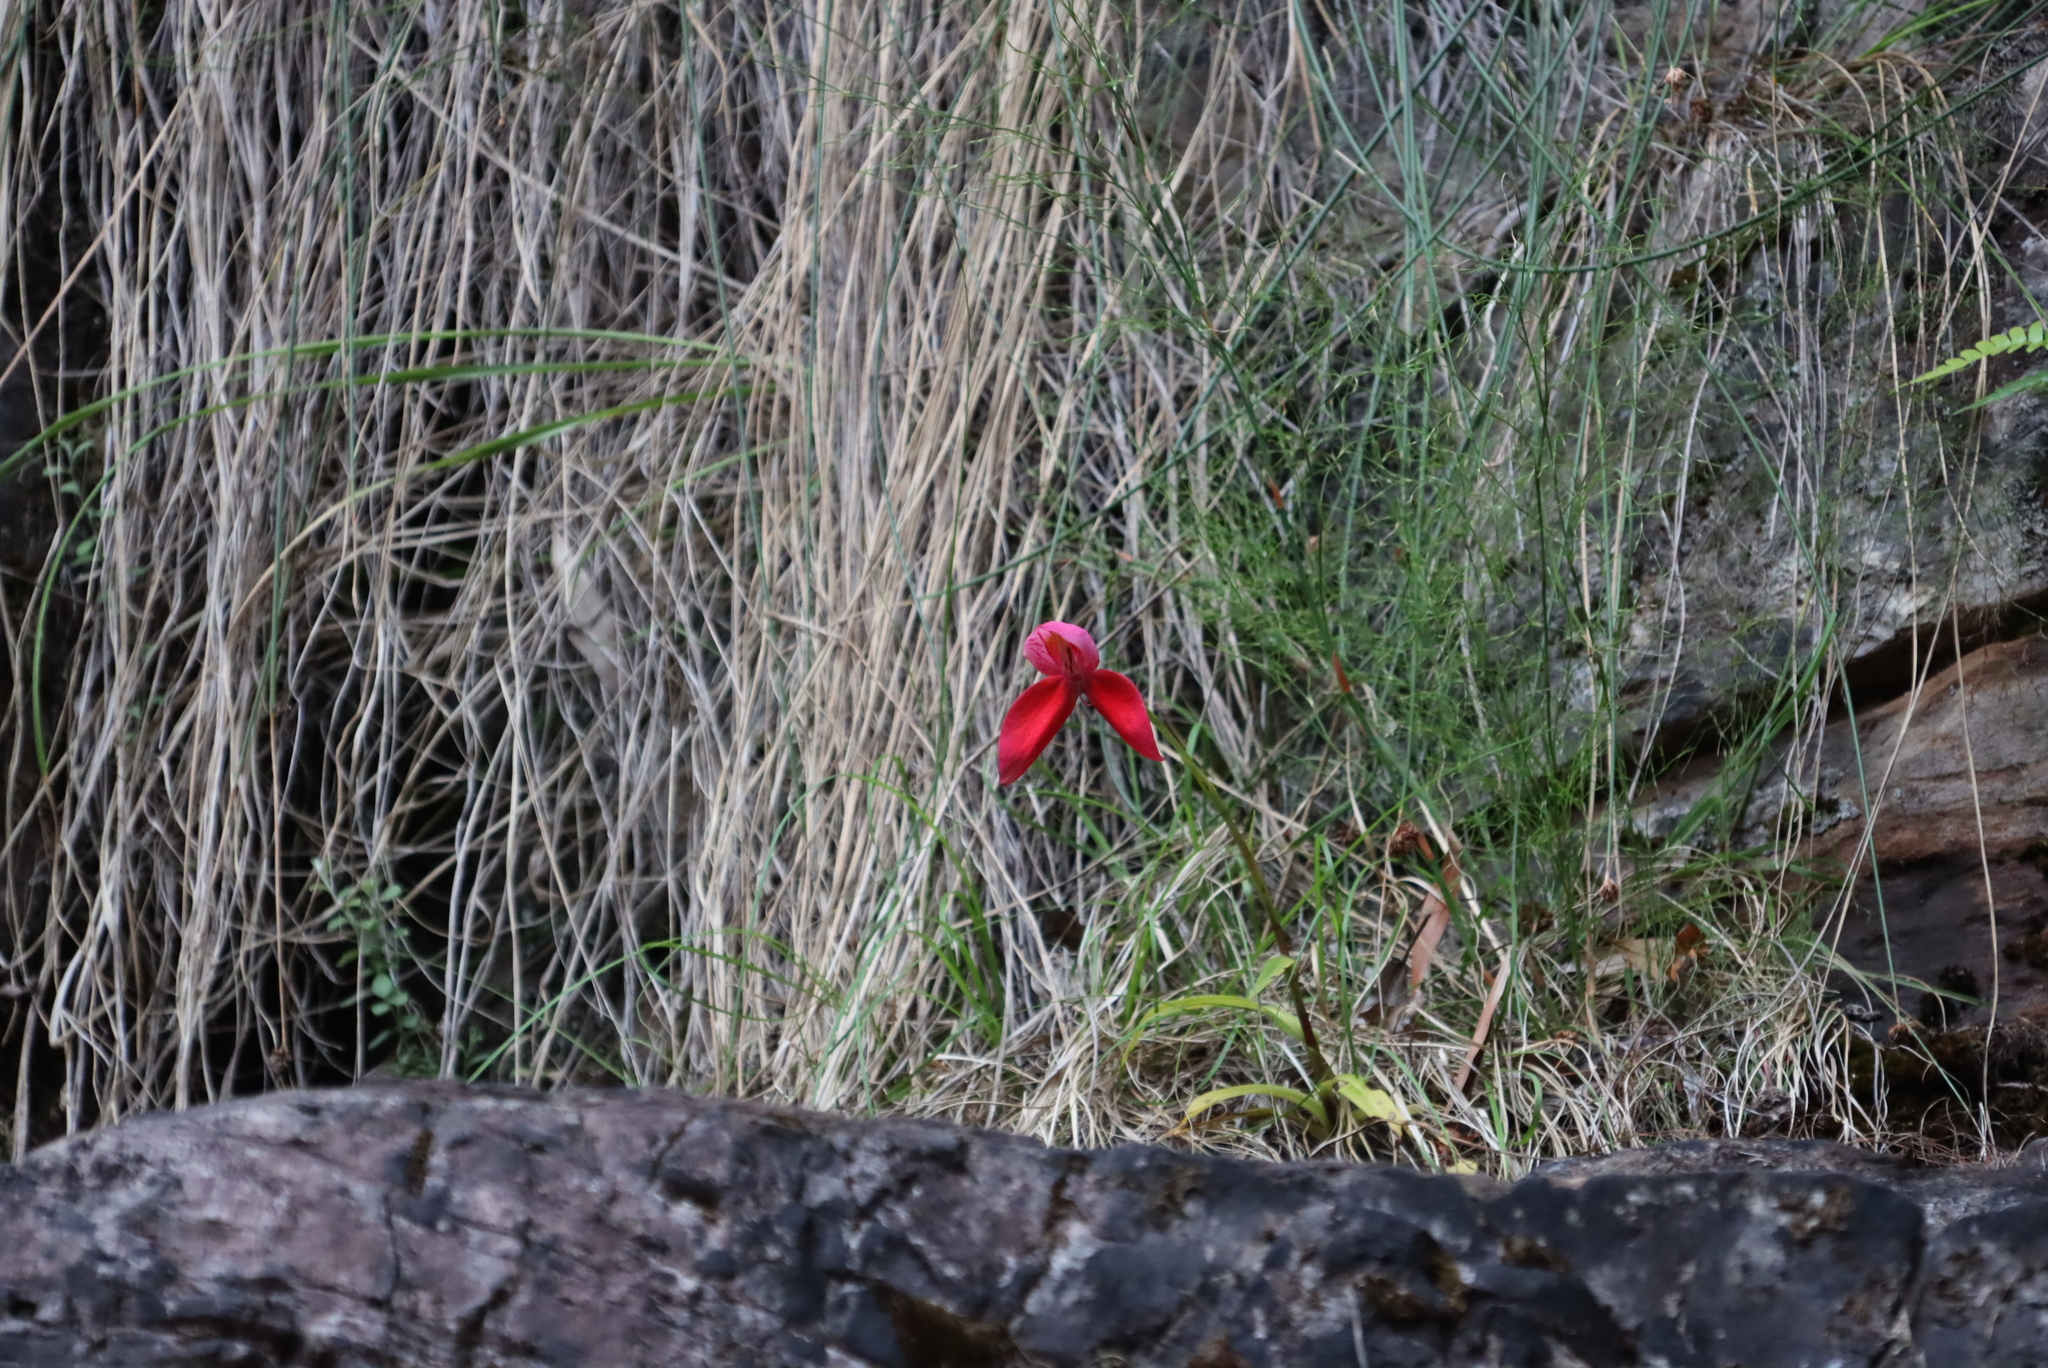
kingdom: Plantae
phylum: Tracheophyta
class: Liliopsida
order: Asparagales
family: Orchidaceae
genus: Disa
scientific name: Disa uniflora
